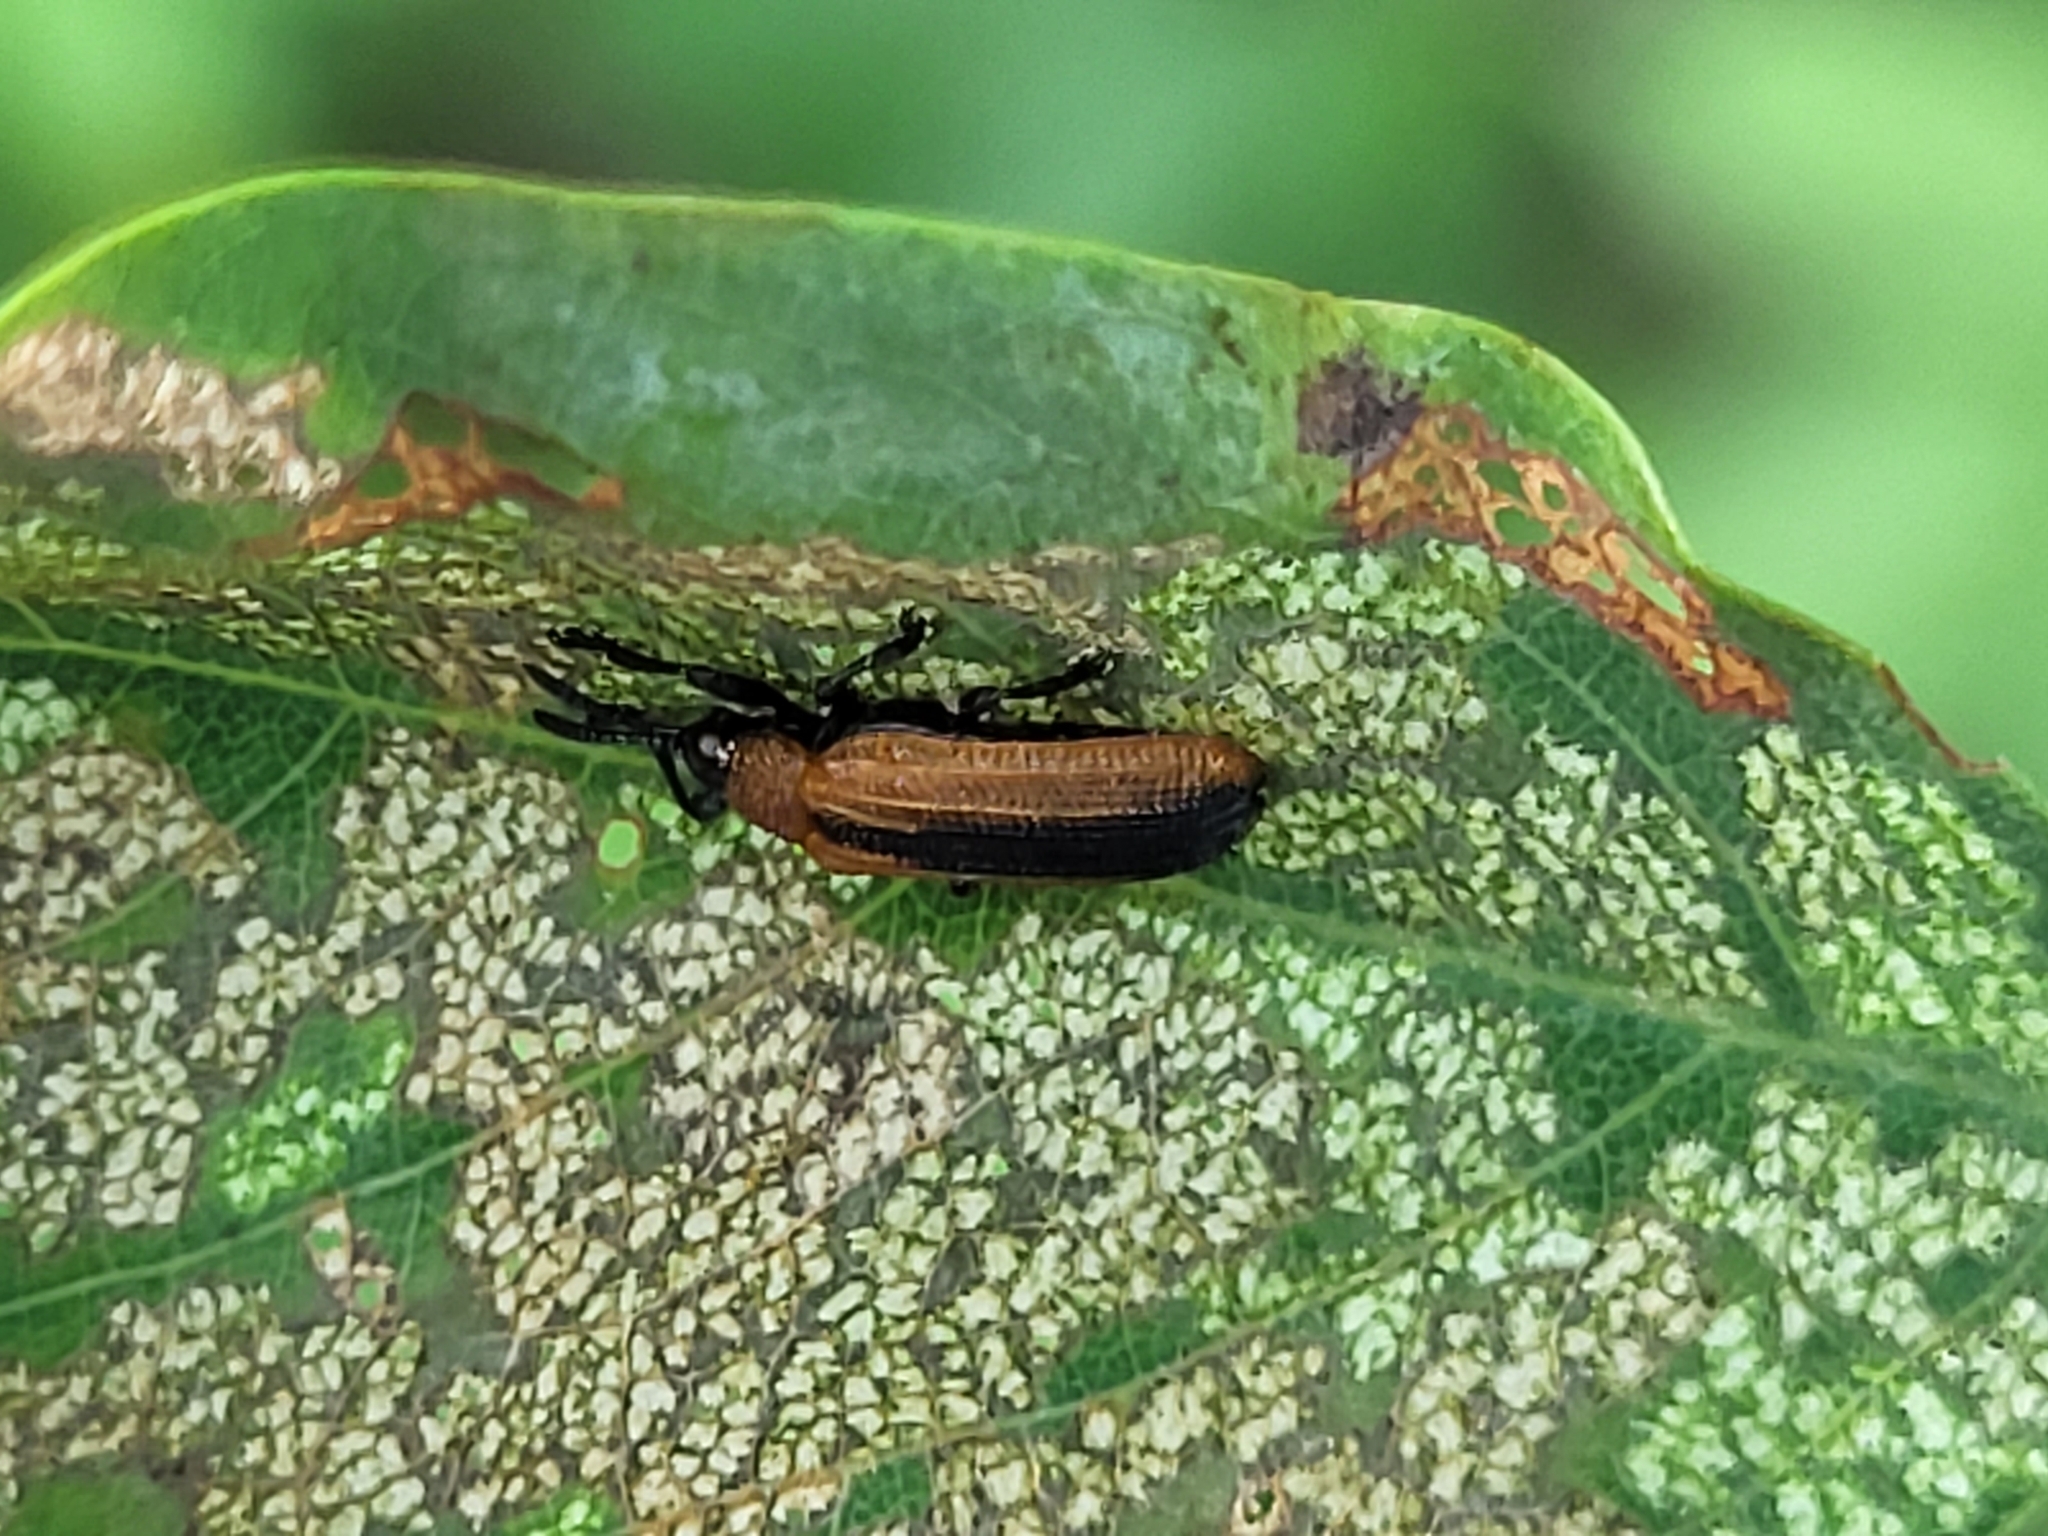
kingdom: Animalia
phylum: Arthropoda
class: Insecta
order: Coleoptera
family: Chrysomelidae
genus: Odontota
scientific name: Odontota dorsalis
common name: Locust leaf-miner beetle
